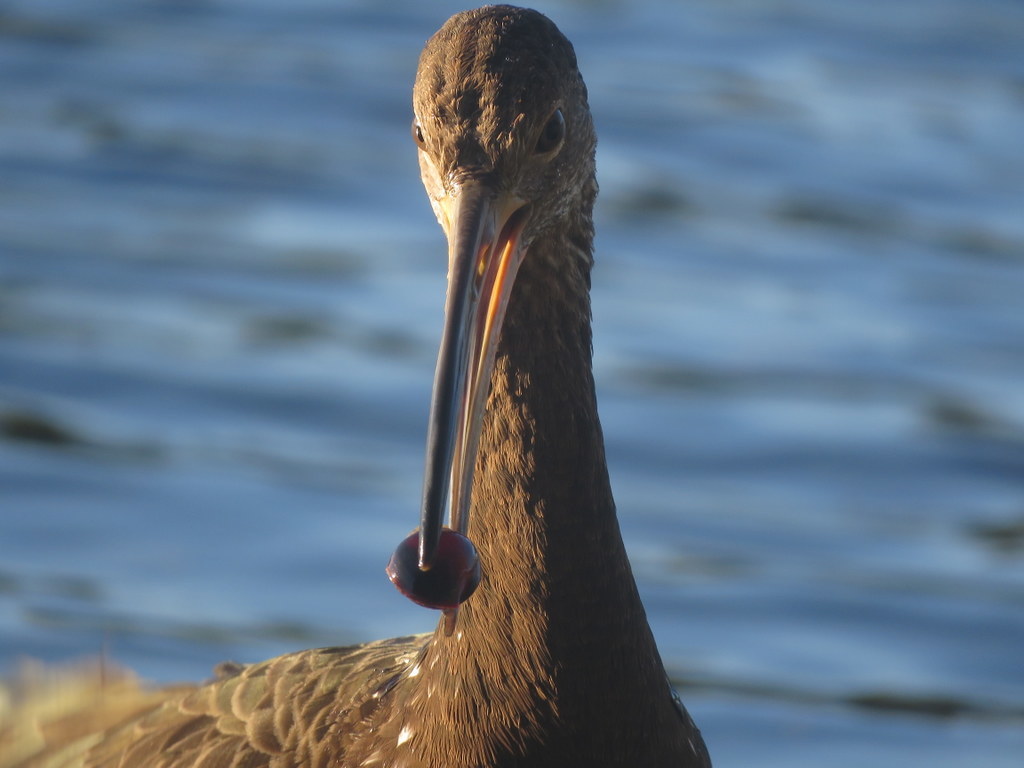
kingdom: Animalia
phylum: Chordata
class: Aves
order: Gruiformes
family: Aramidae
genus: Aramus
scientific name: Aramus guarauna
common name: Limpkin
